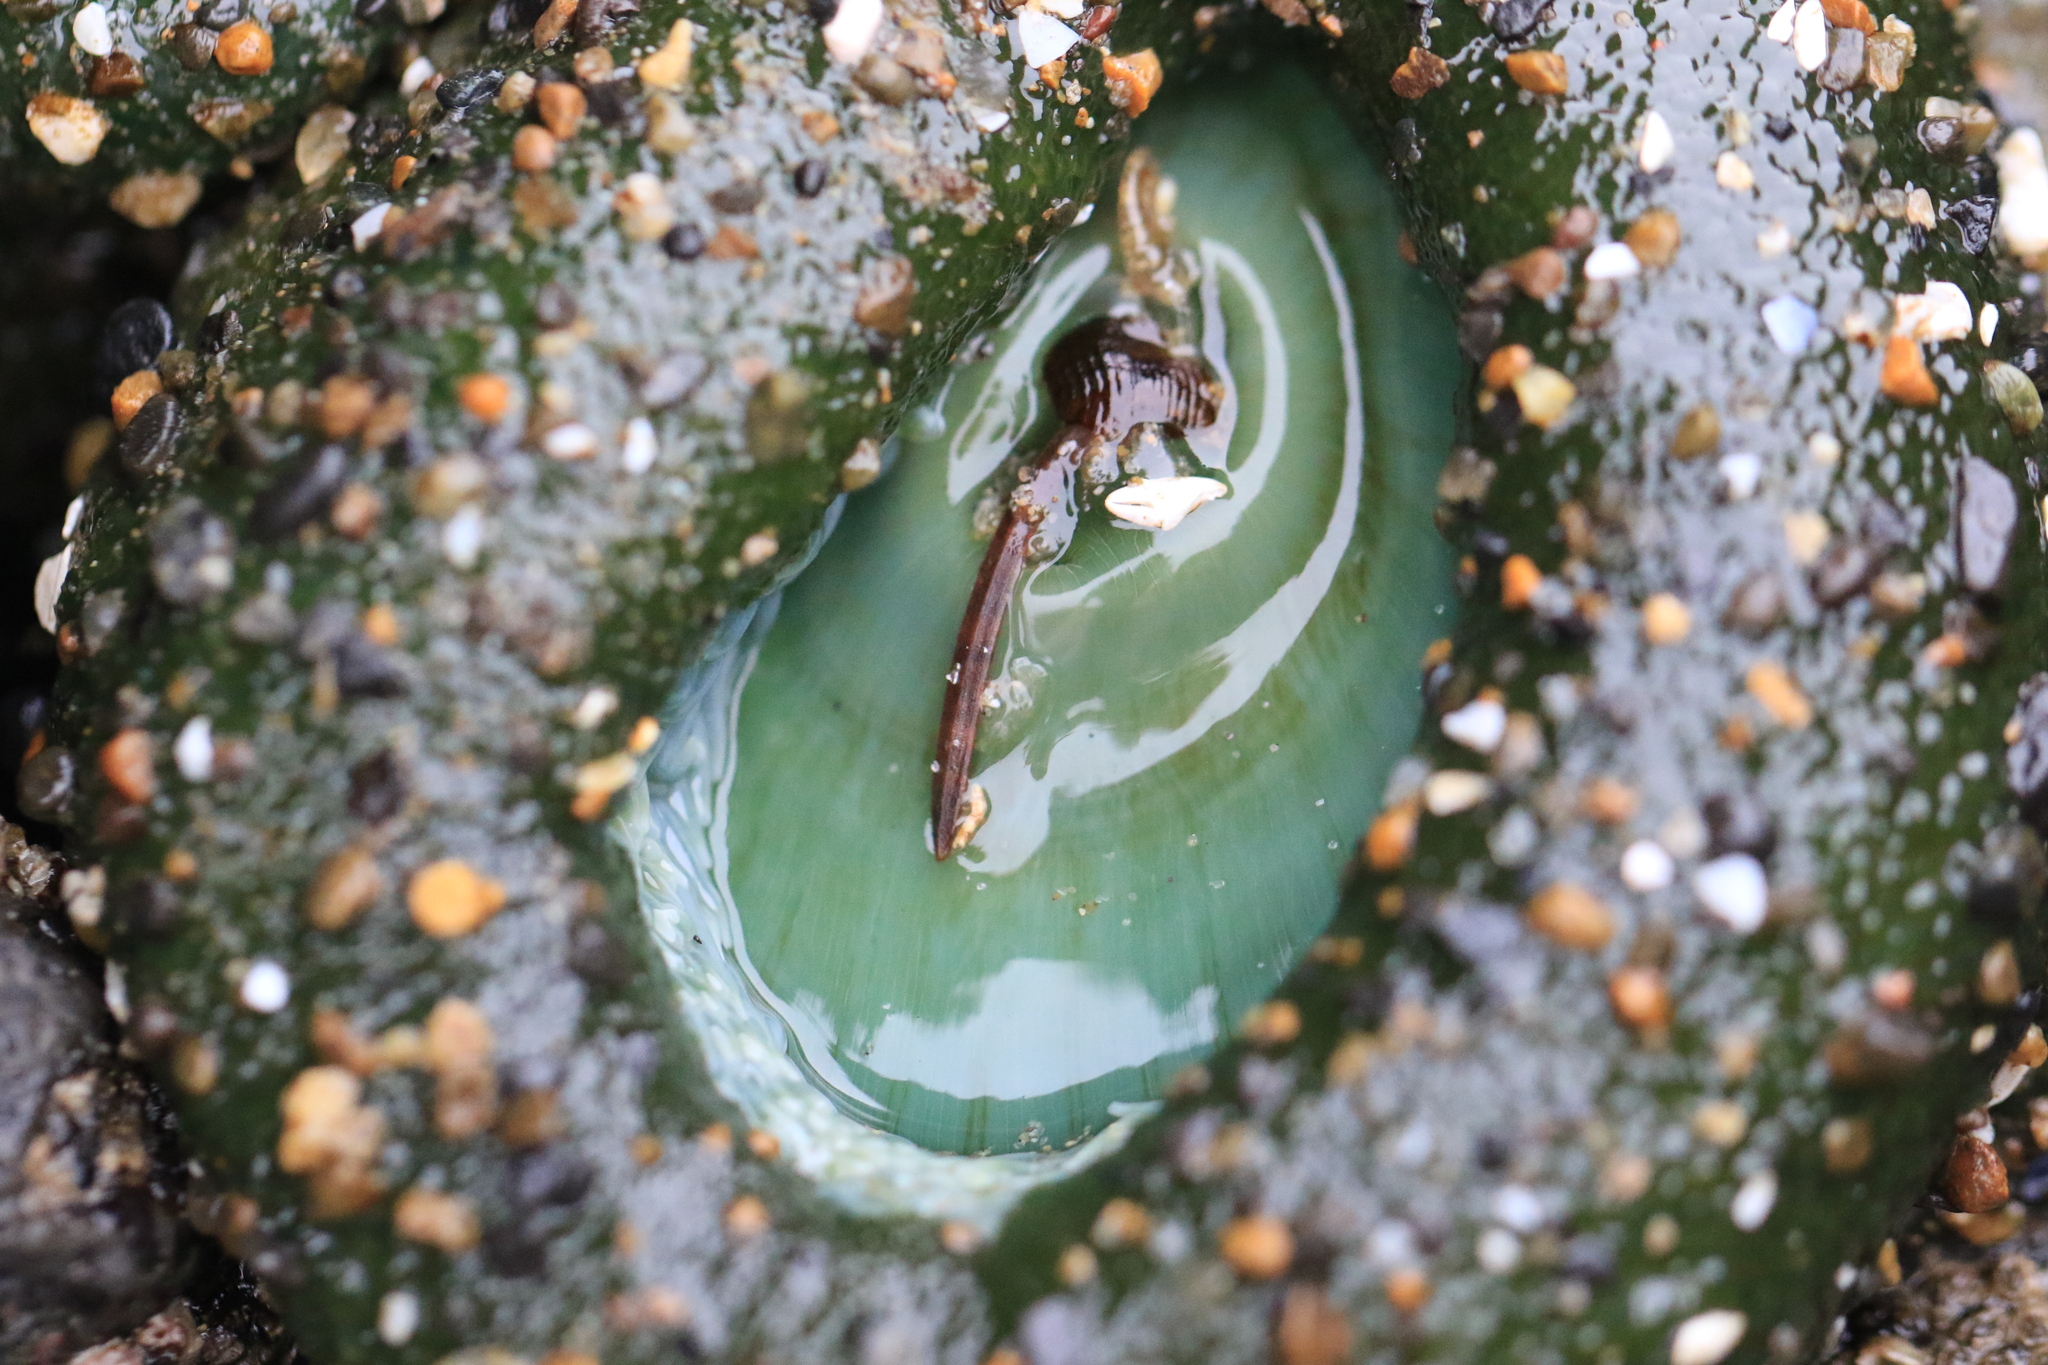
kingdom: Animalia
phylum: Cnidaria
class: Anthozoa
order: Actiniaria
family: Actiniidae
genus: Anthopleura
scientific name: Anthopleura xanthogrammica
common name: Giant green anemone
